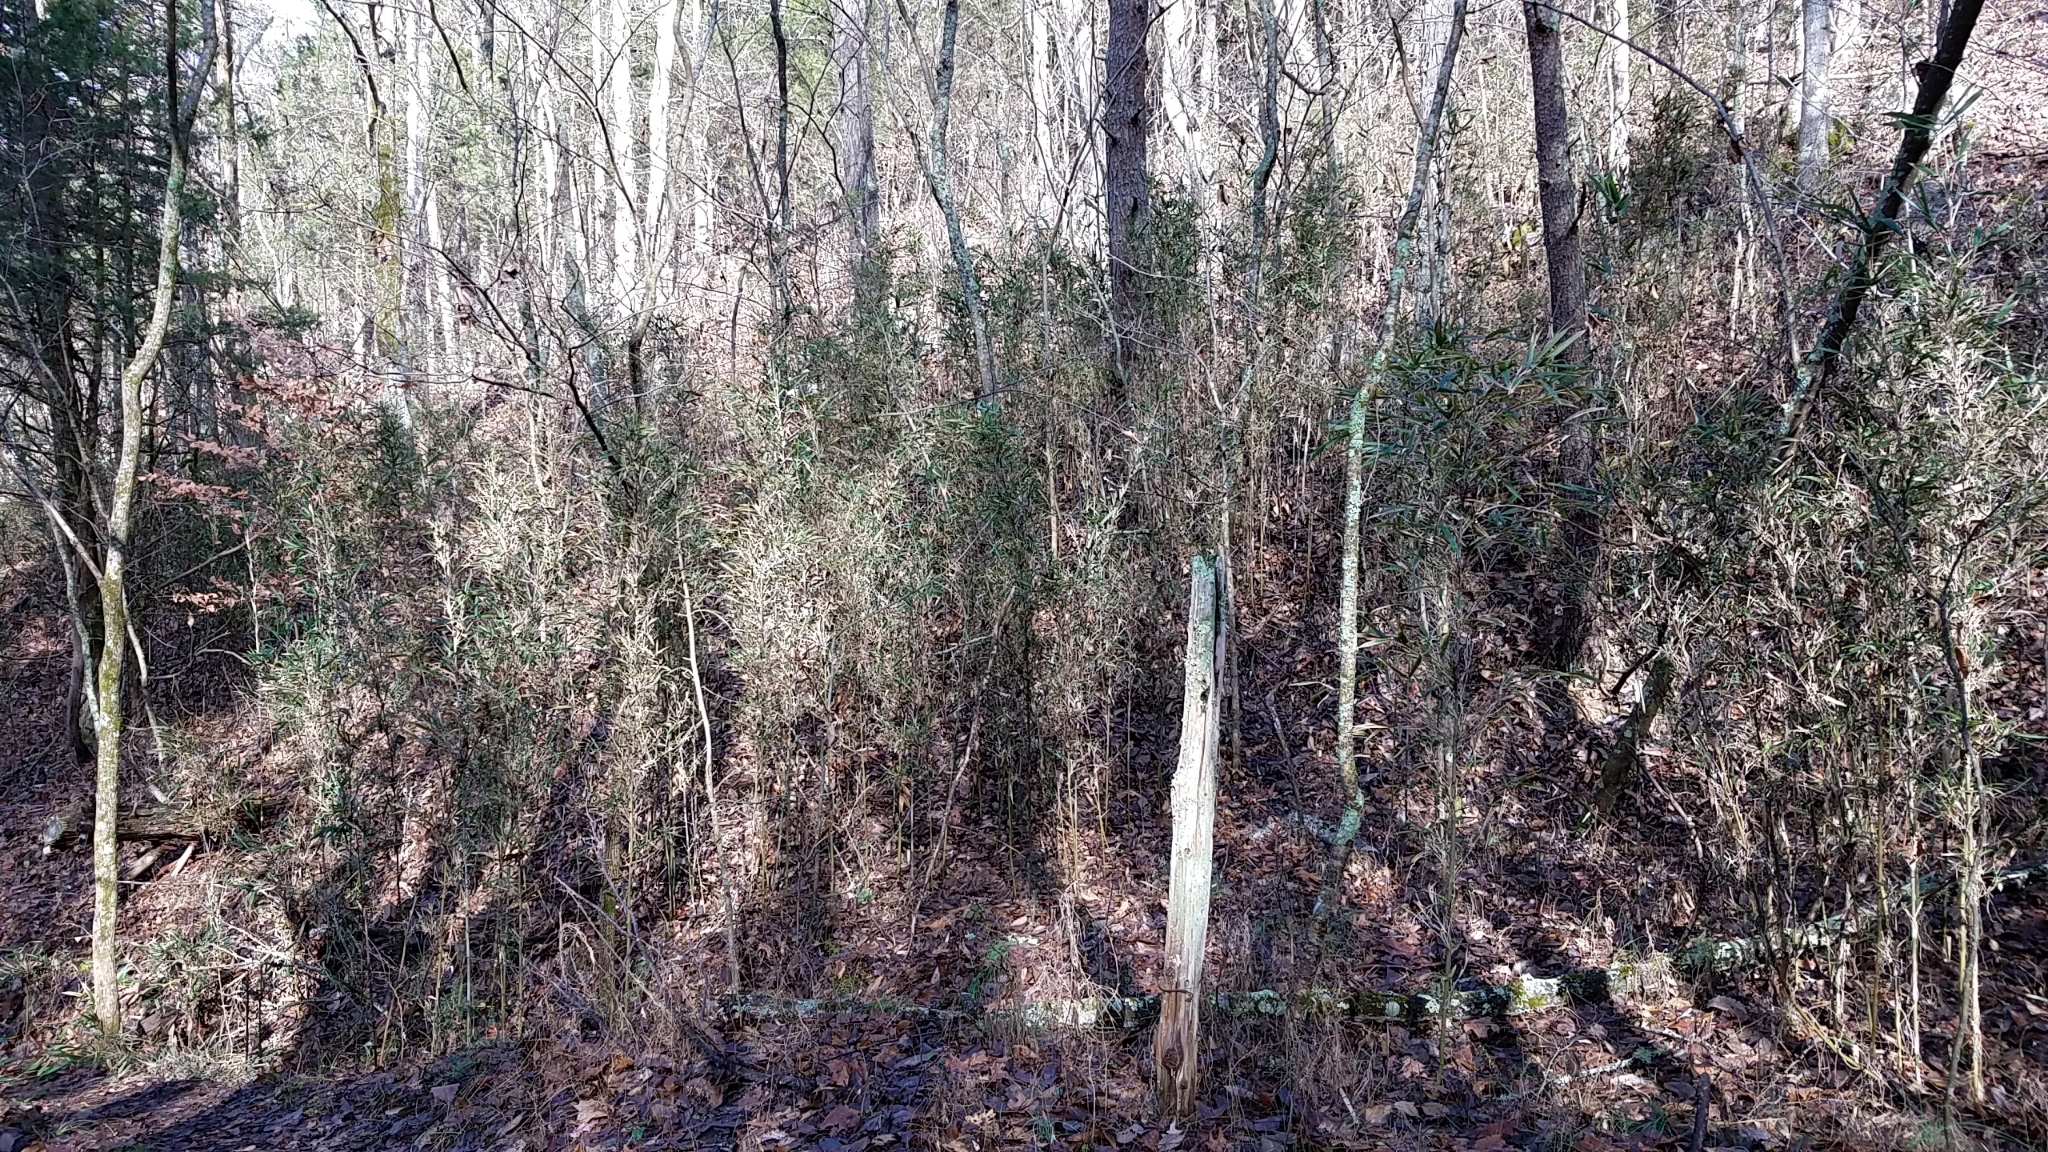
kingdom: Plantae
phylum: Tracheophyta
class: Liliopsida
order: Poales
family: Poaceae
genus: Arundinaria
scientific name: Arundinaria gigantea
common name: Giant cane
